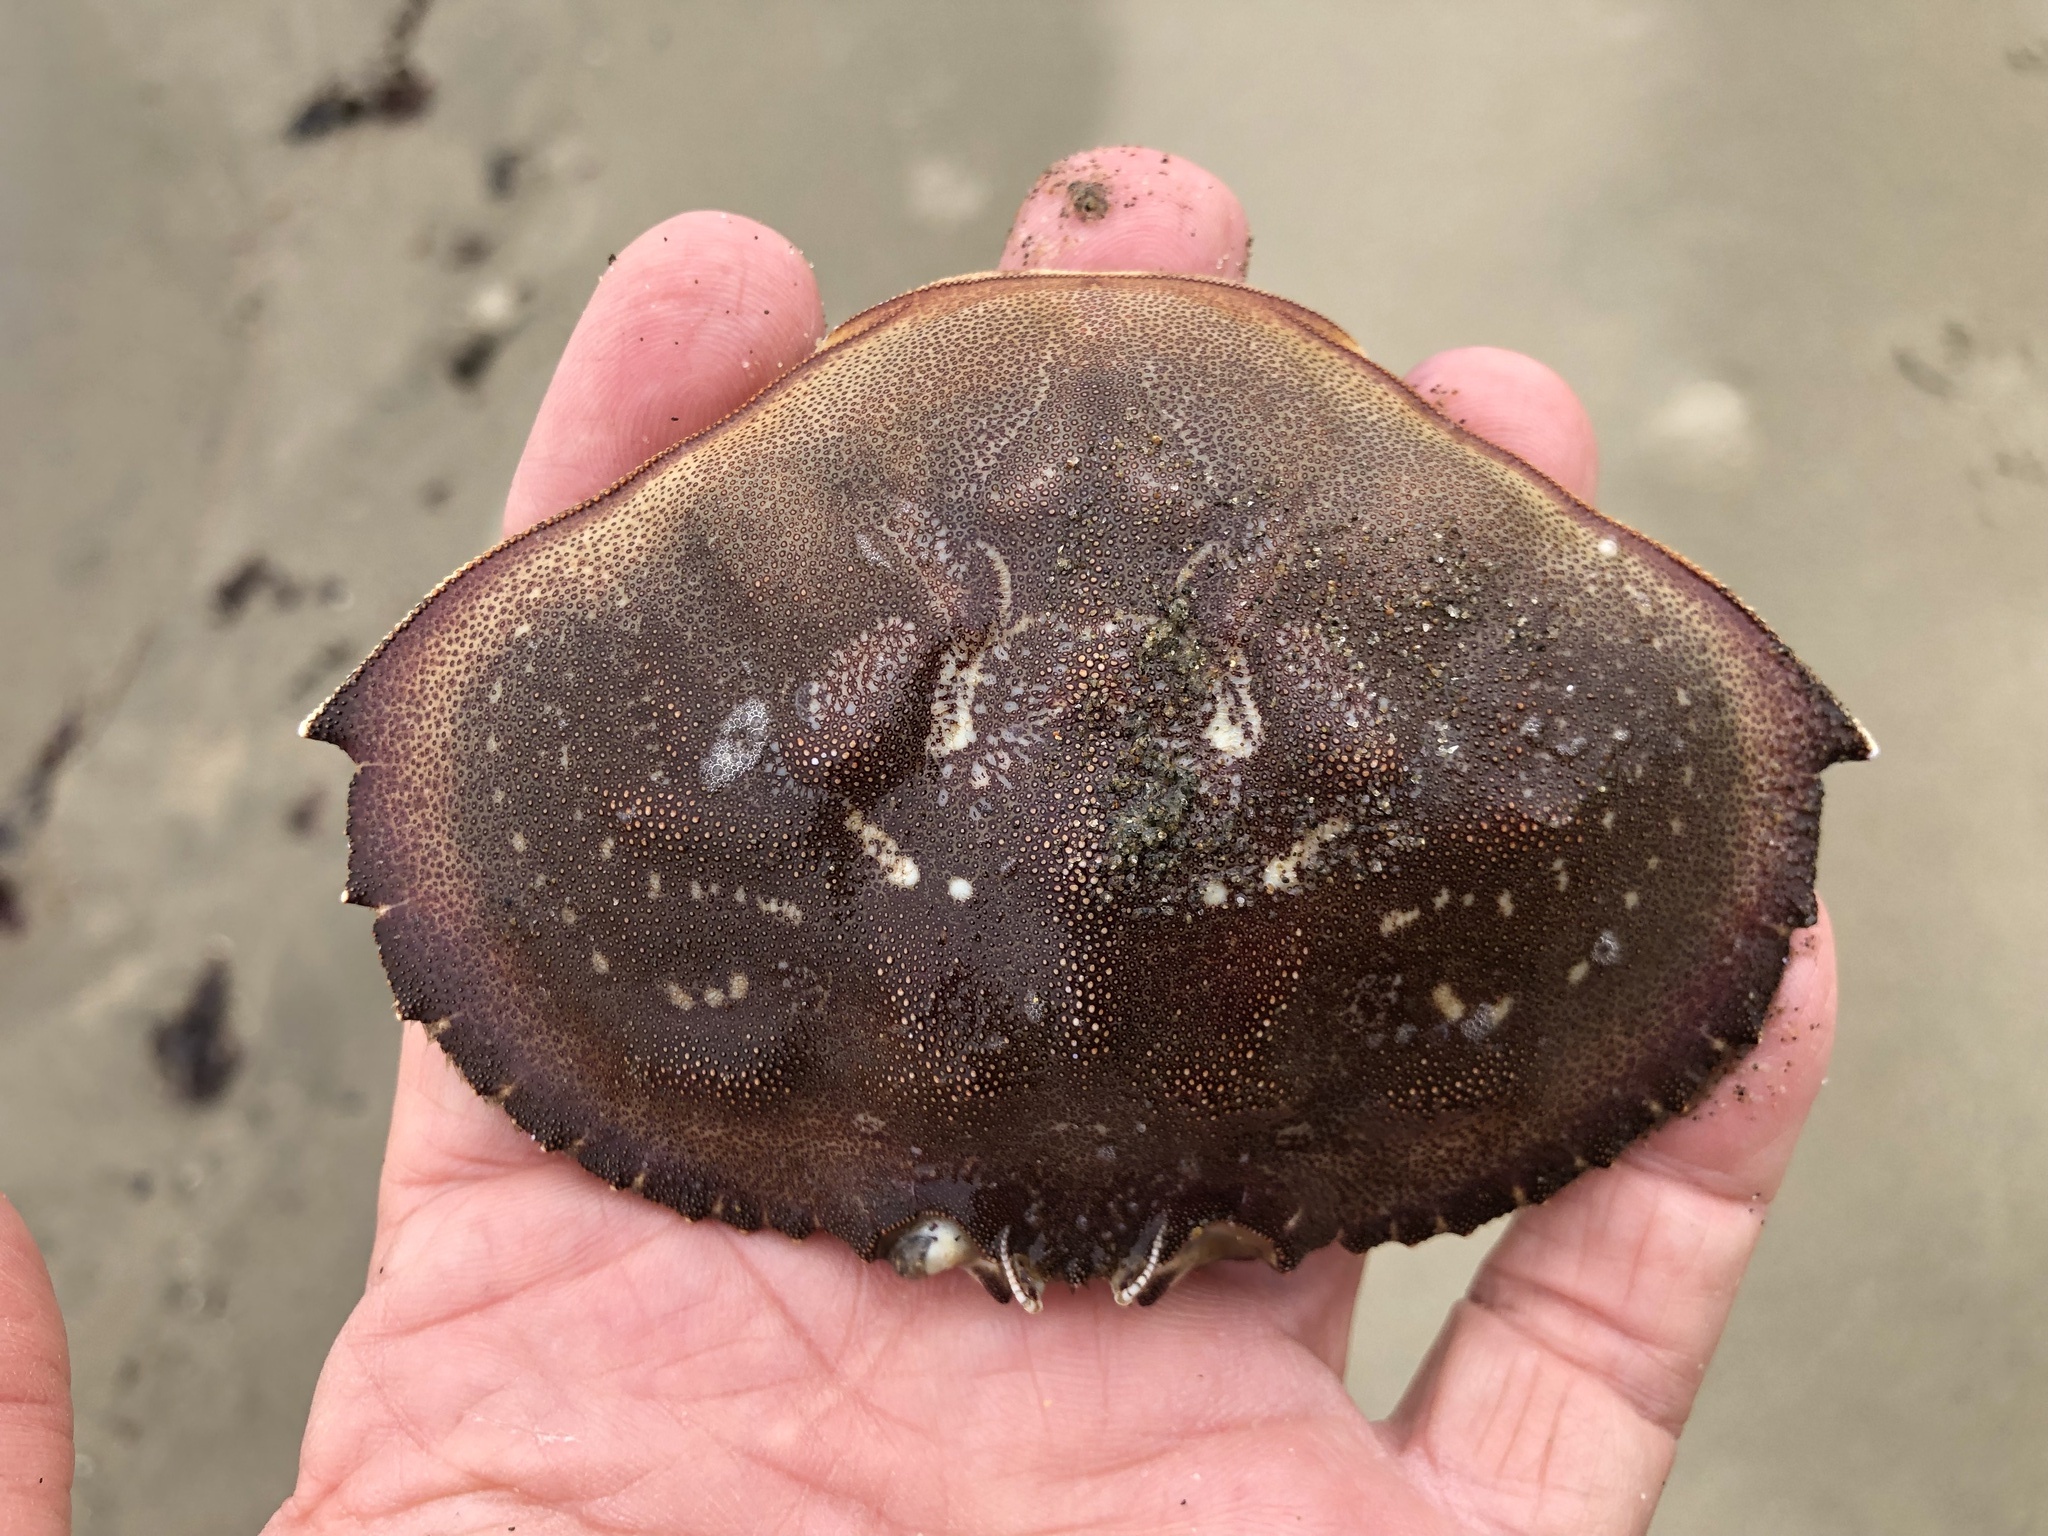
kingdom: Animalia
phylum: Arthropoda
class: Malacostraca
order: Decapoda
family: Cancridae
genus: Metacarcinus
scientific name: Metacarcinus magister
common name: Californian crab
